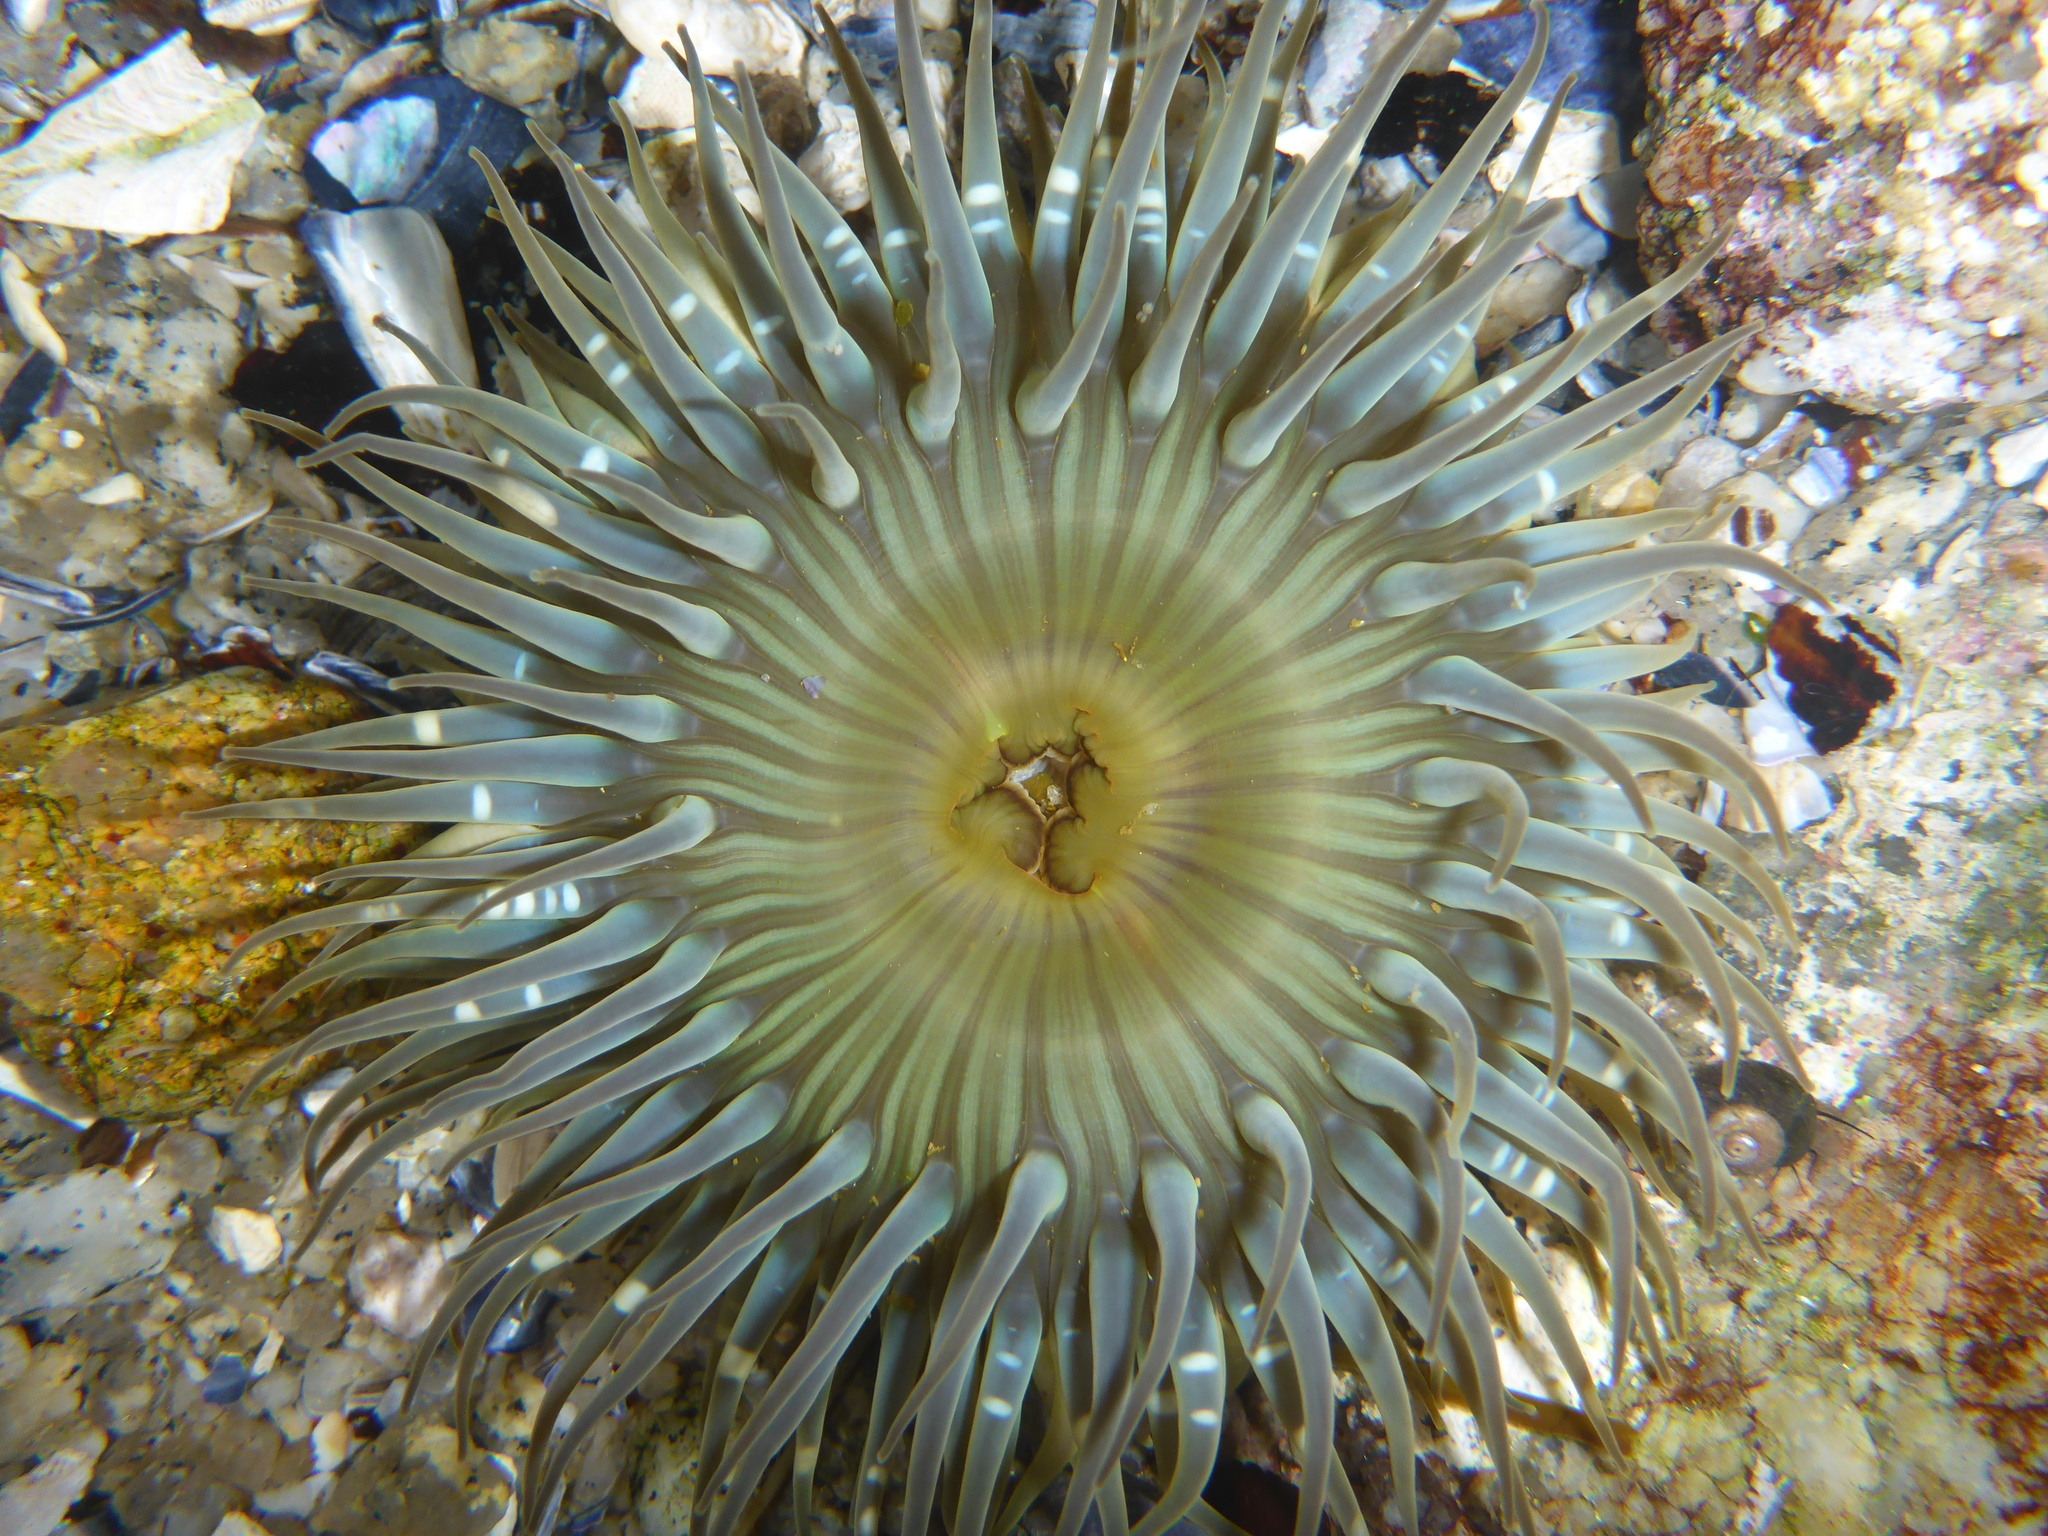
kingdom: Animalia
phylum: Cnidaria
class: Anthozoa
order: Actiniaria
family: Actiniidae
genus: Anthopleura
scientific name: Anthopleura sola
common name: Sun anemone
